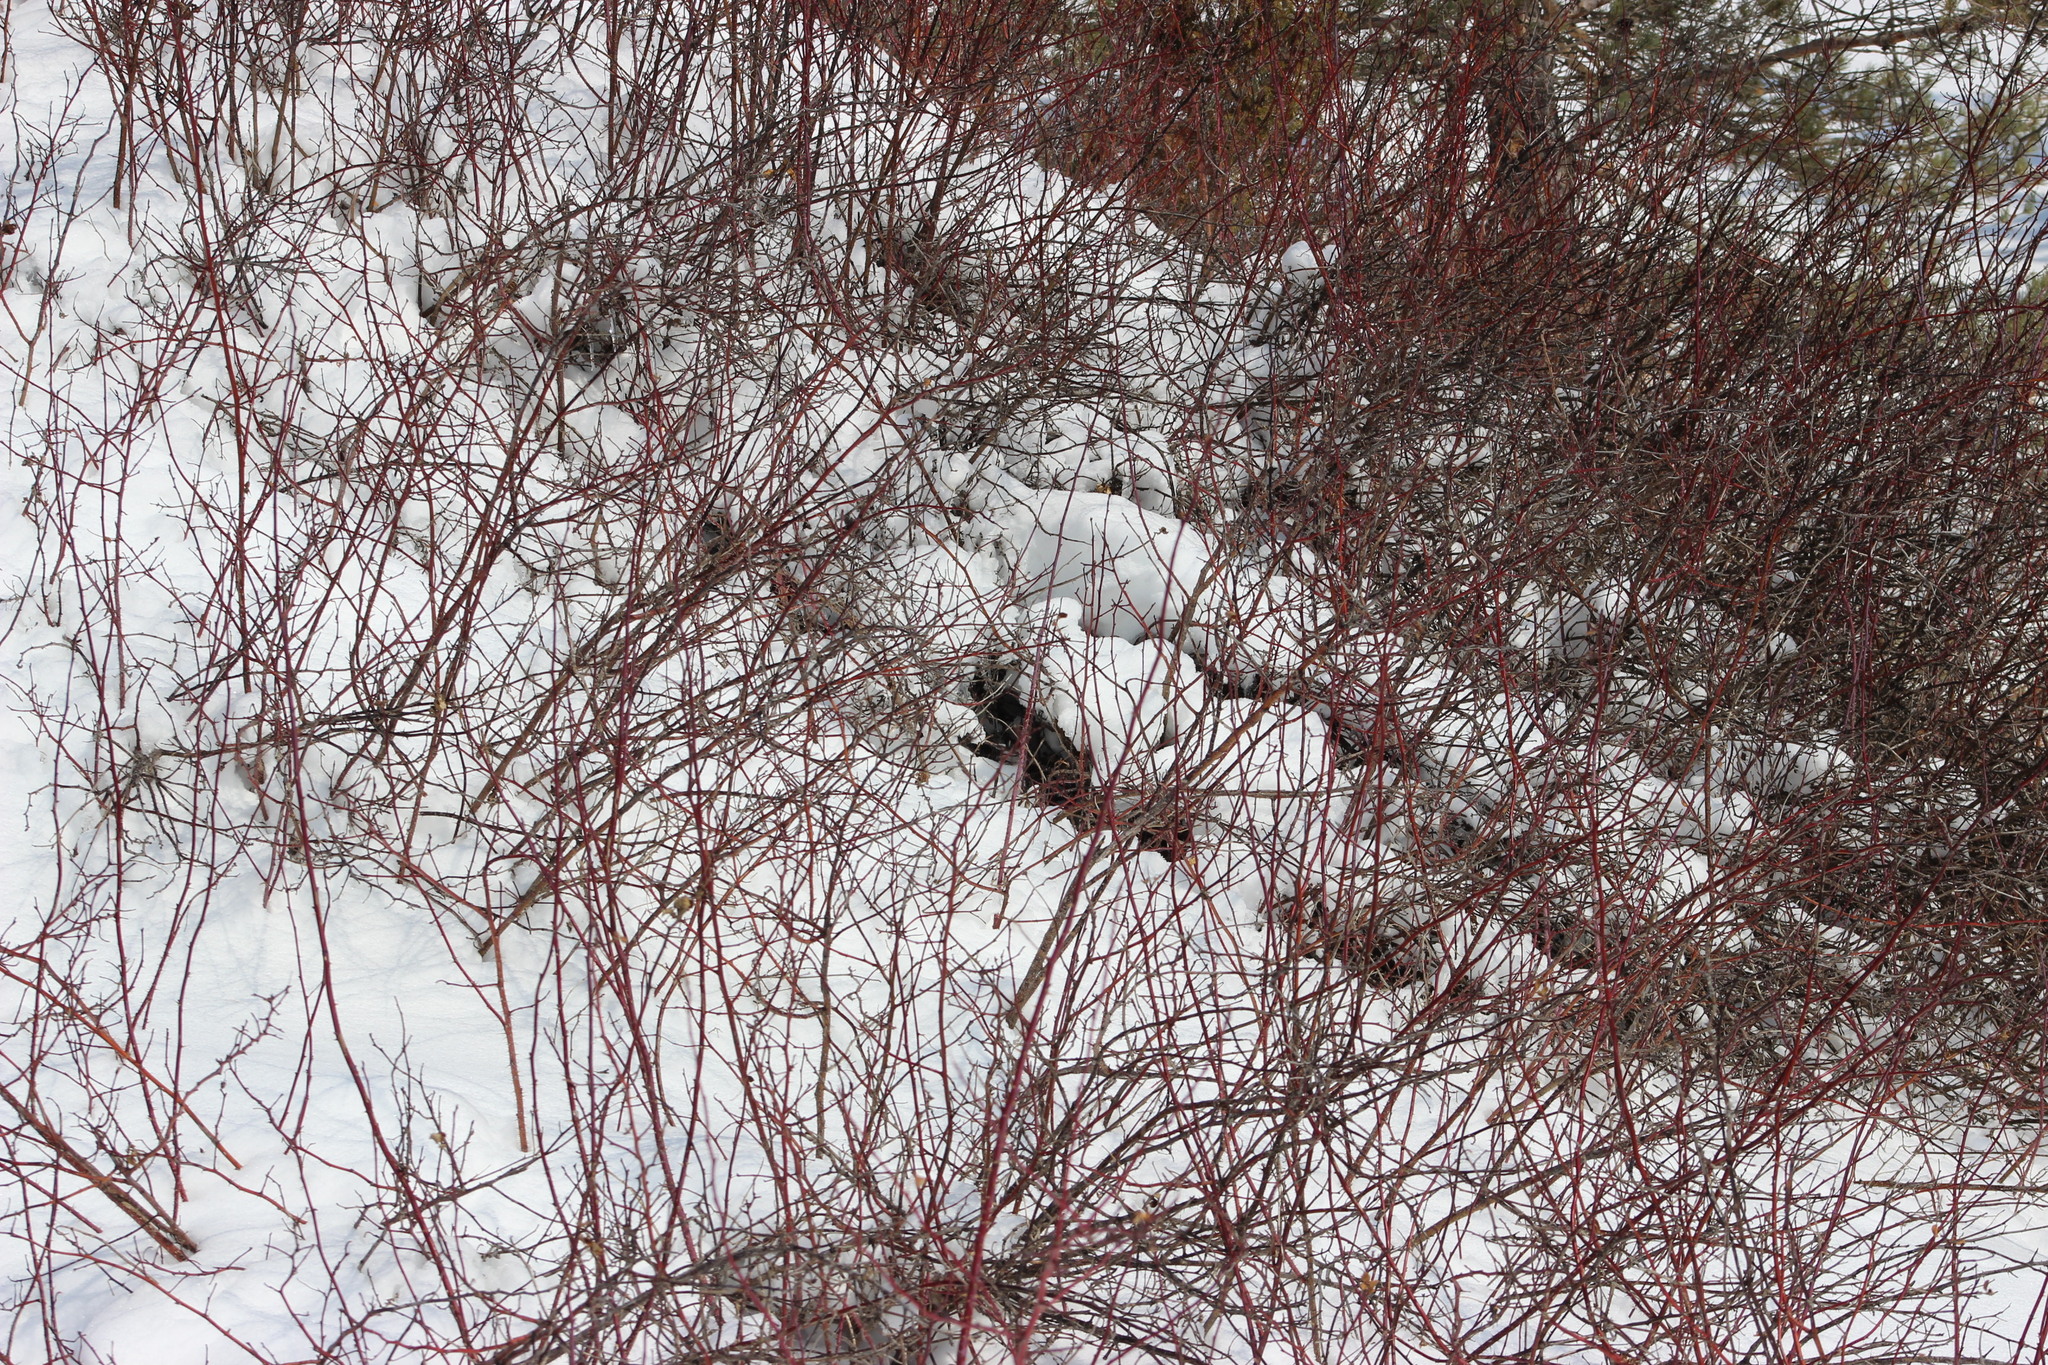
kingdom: Plantae
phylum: Tracheophyta
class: Magnoliopsida
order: Cornales
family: Cornaceae
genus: Cornus
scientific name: Cornus alba
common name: White dogwood
